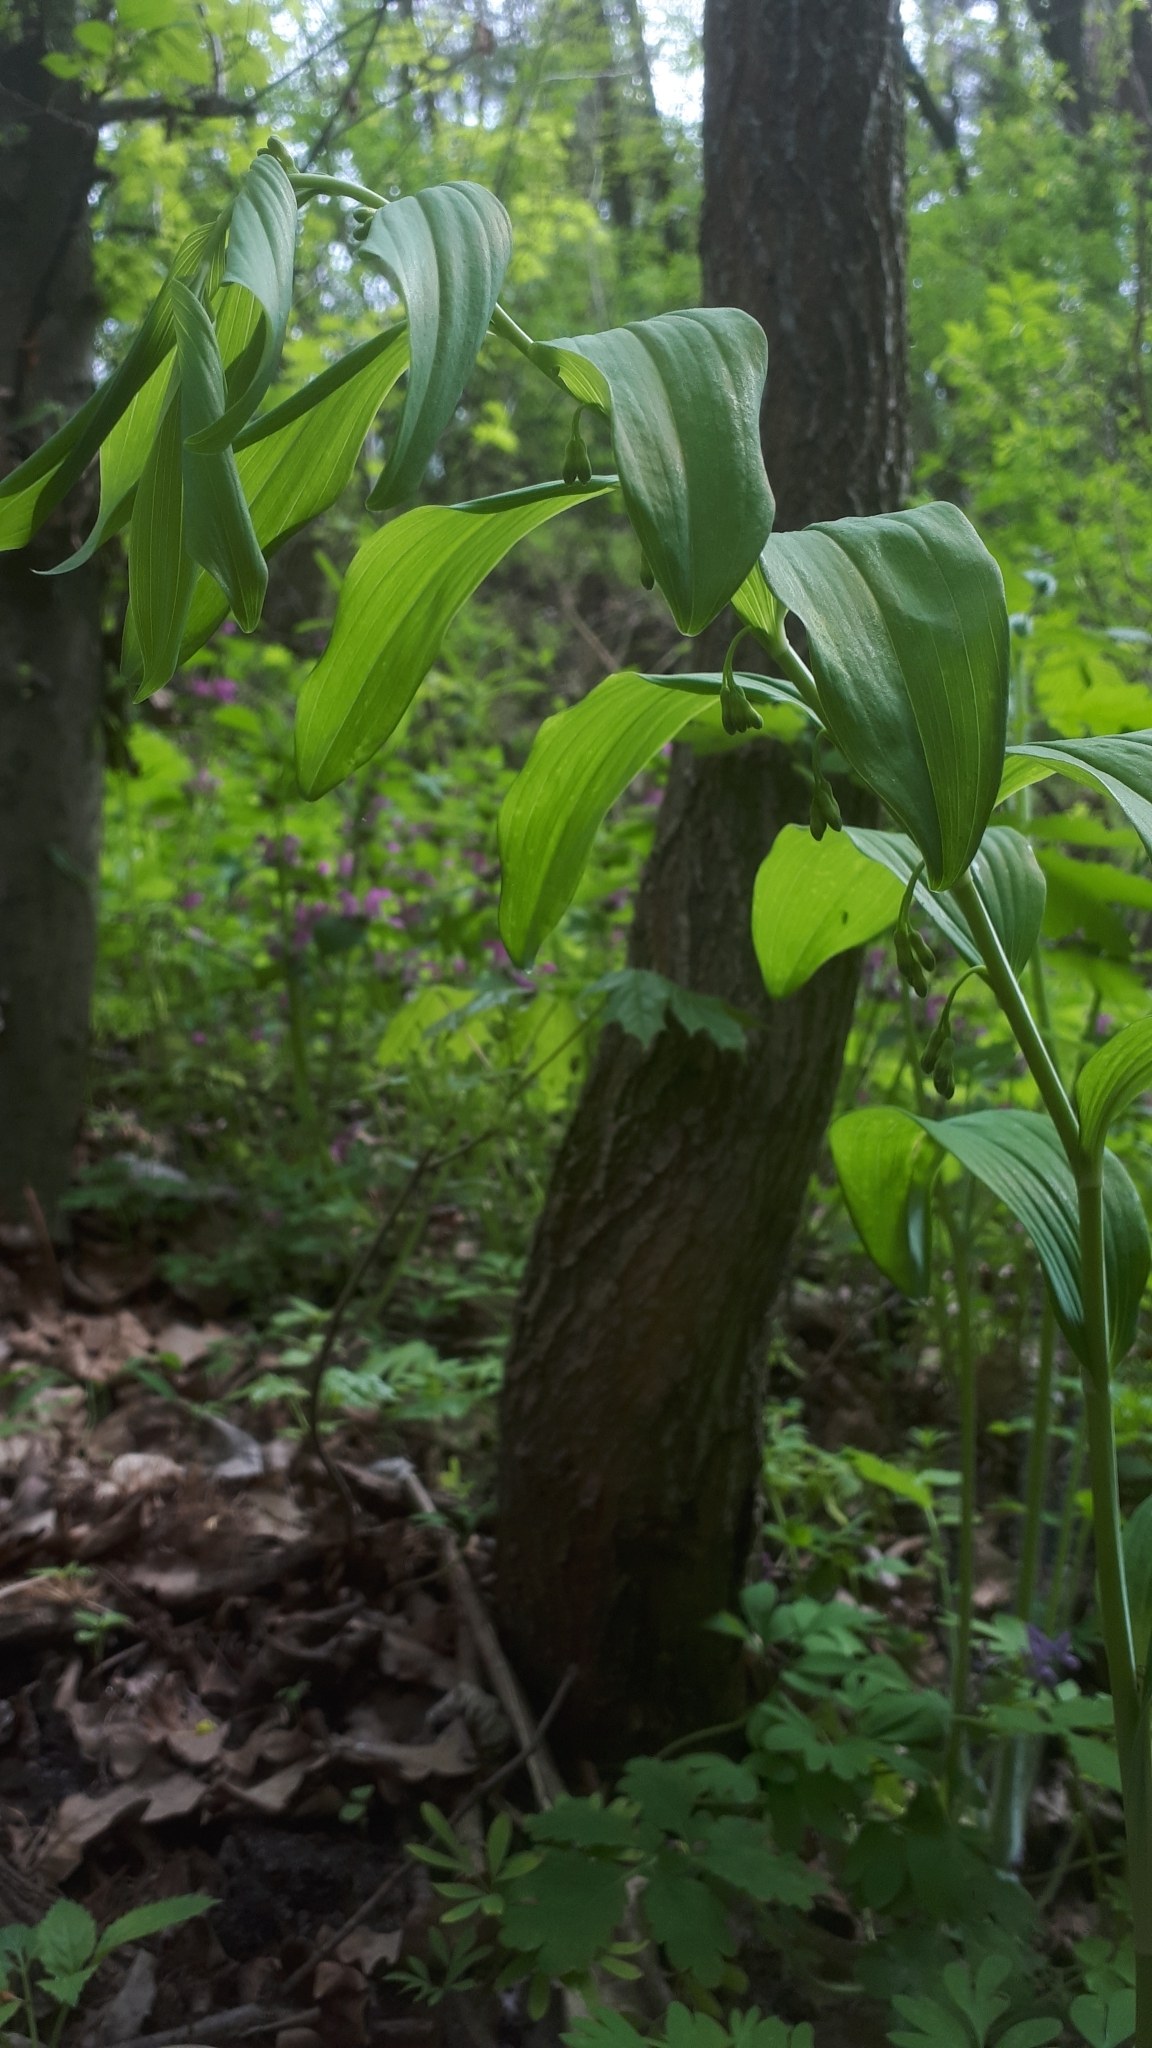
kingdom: Plantae
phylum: Tracheophyta
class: Liliopsida
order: Asparagales
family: Asparagaceae
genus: Polygonatum
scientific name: Polygonatum multiflorum
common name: Solomon's-seal
